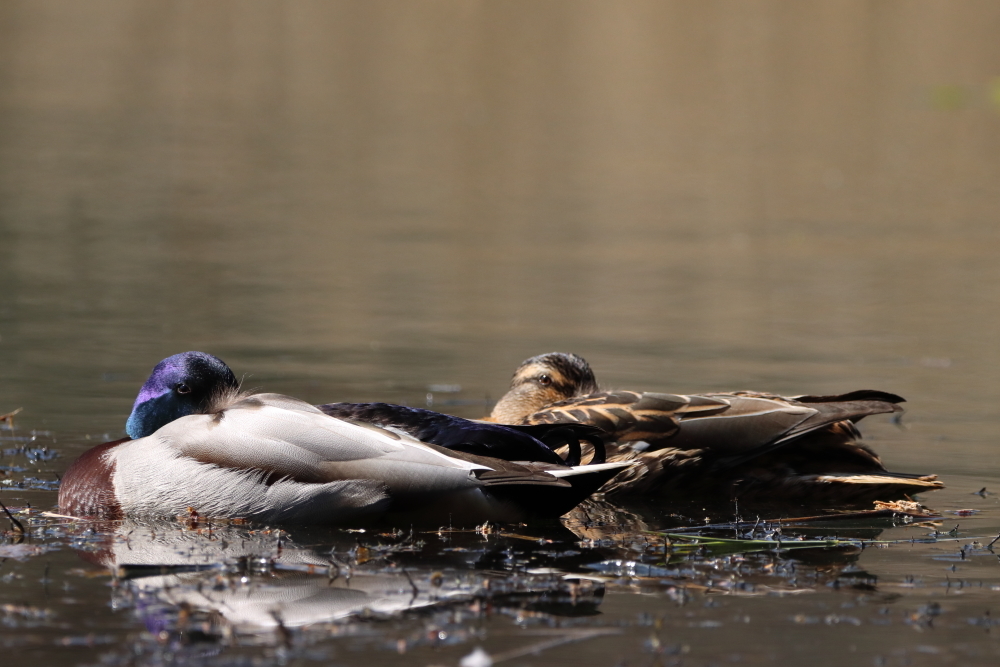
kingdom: Animalia
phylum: Chordata
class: Aves
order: Anseriformes
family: Anatidae
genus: Anas
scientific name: Anas platyrhynchos
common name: Mallard
